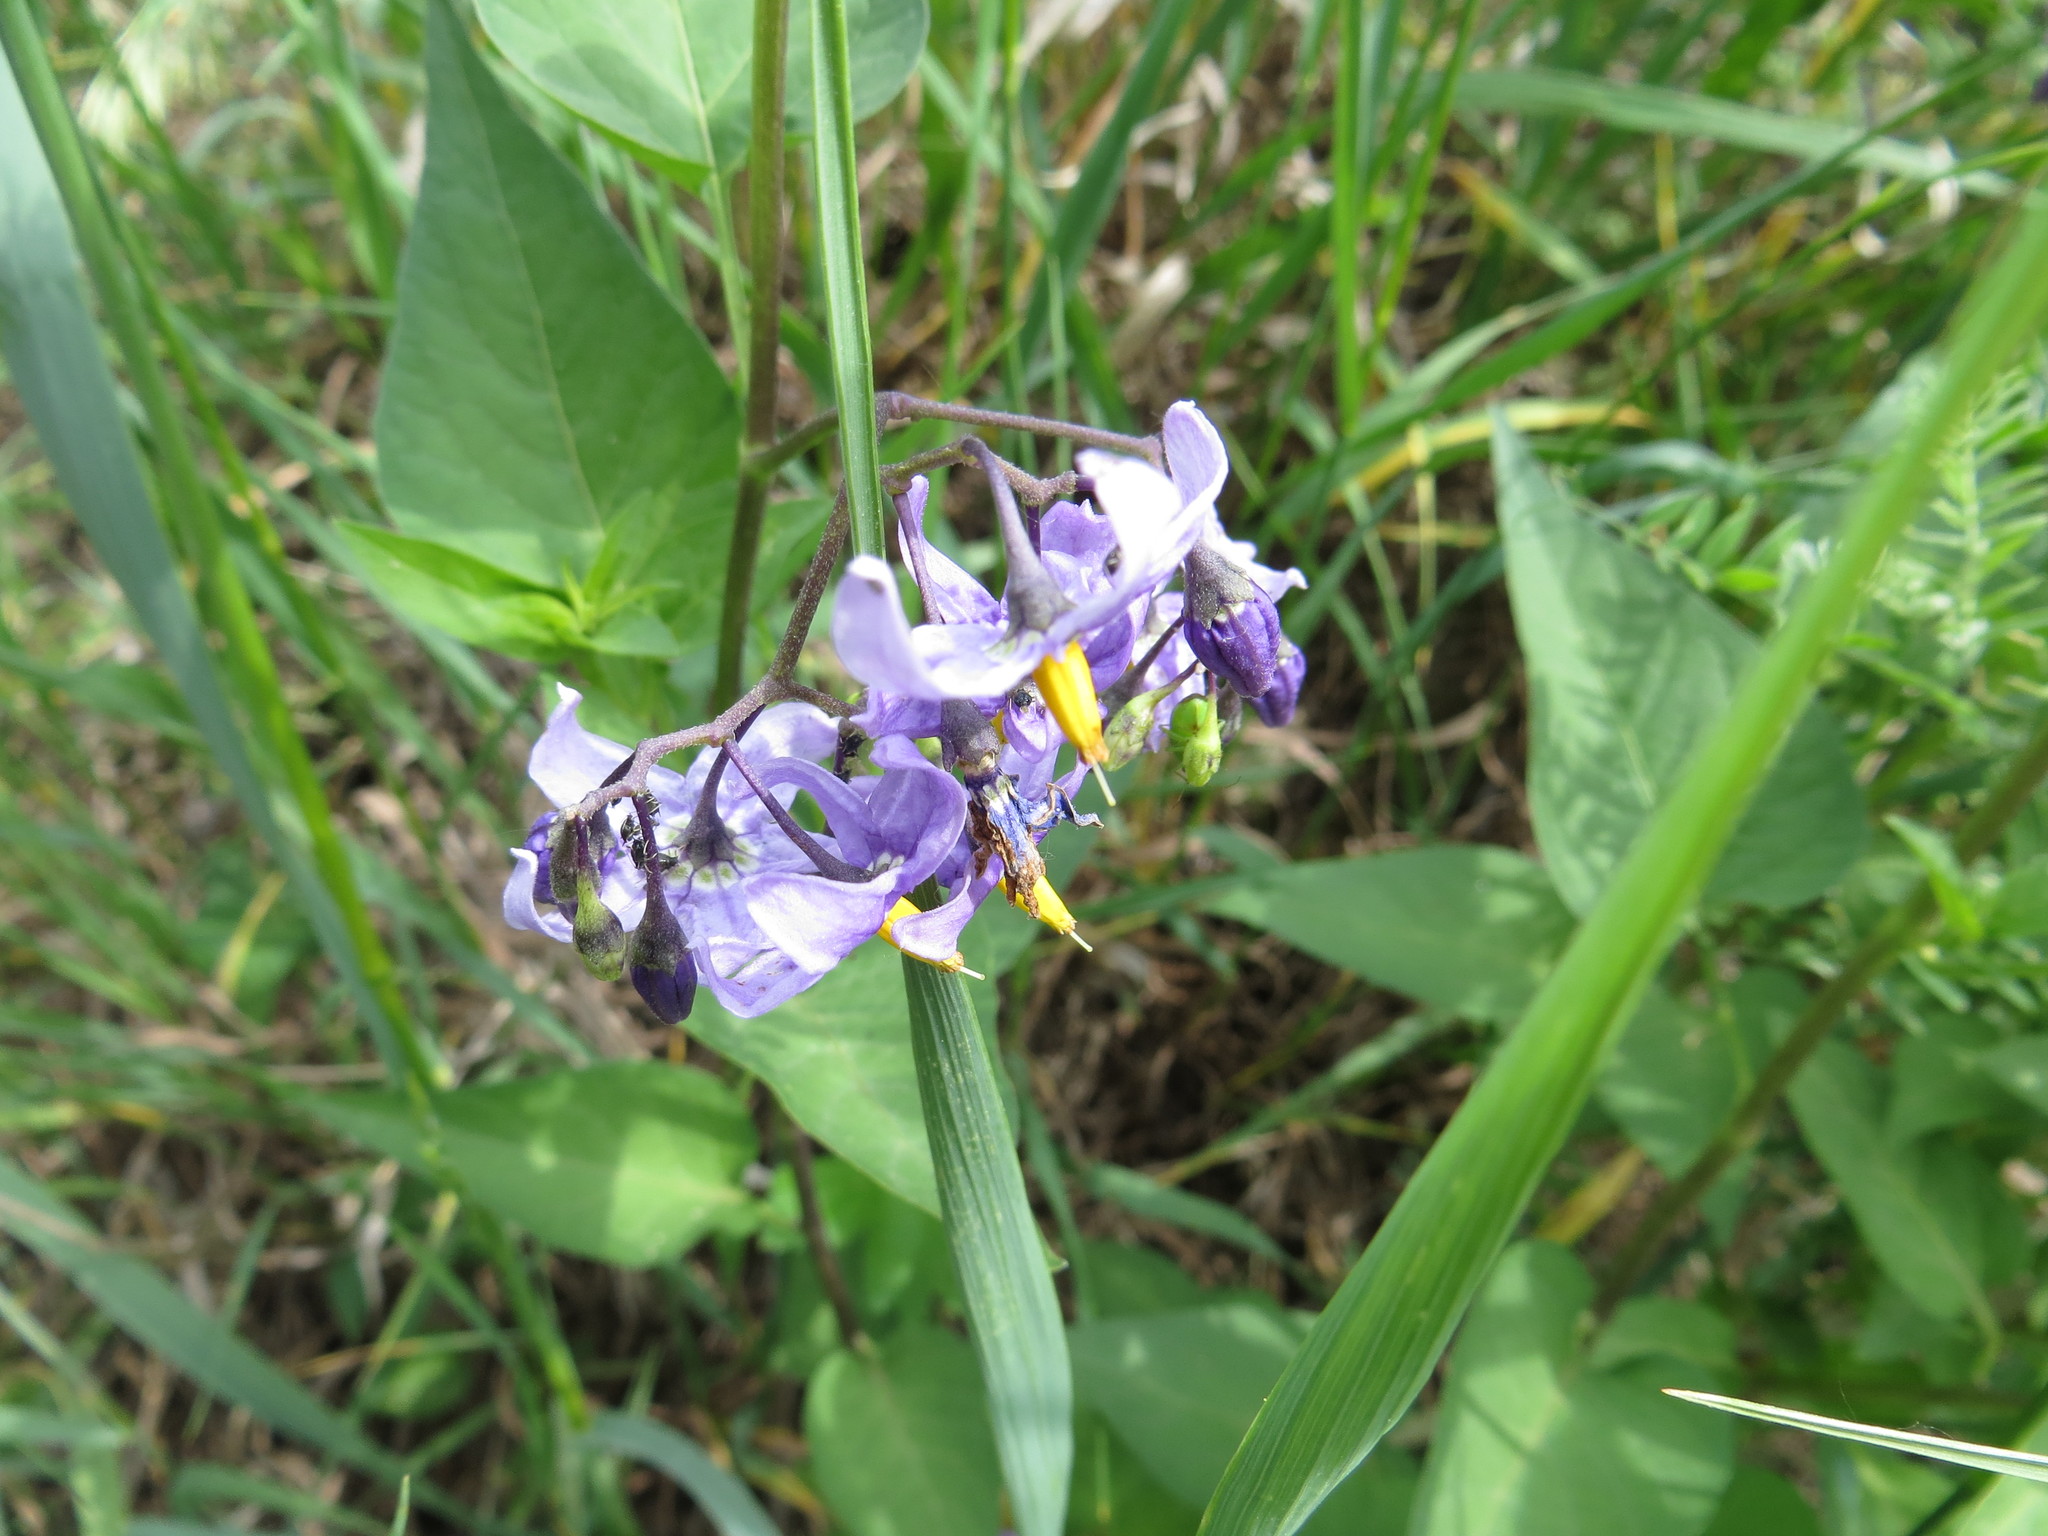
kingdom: Plantae
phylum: Tracheophyta
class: Magnoliopsida
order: Solanales
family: Solanaceae
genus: Solanum
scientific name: Solanum dulcamara
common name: Climbing nightshade
